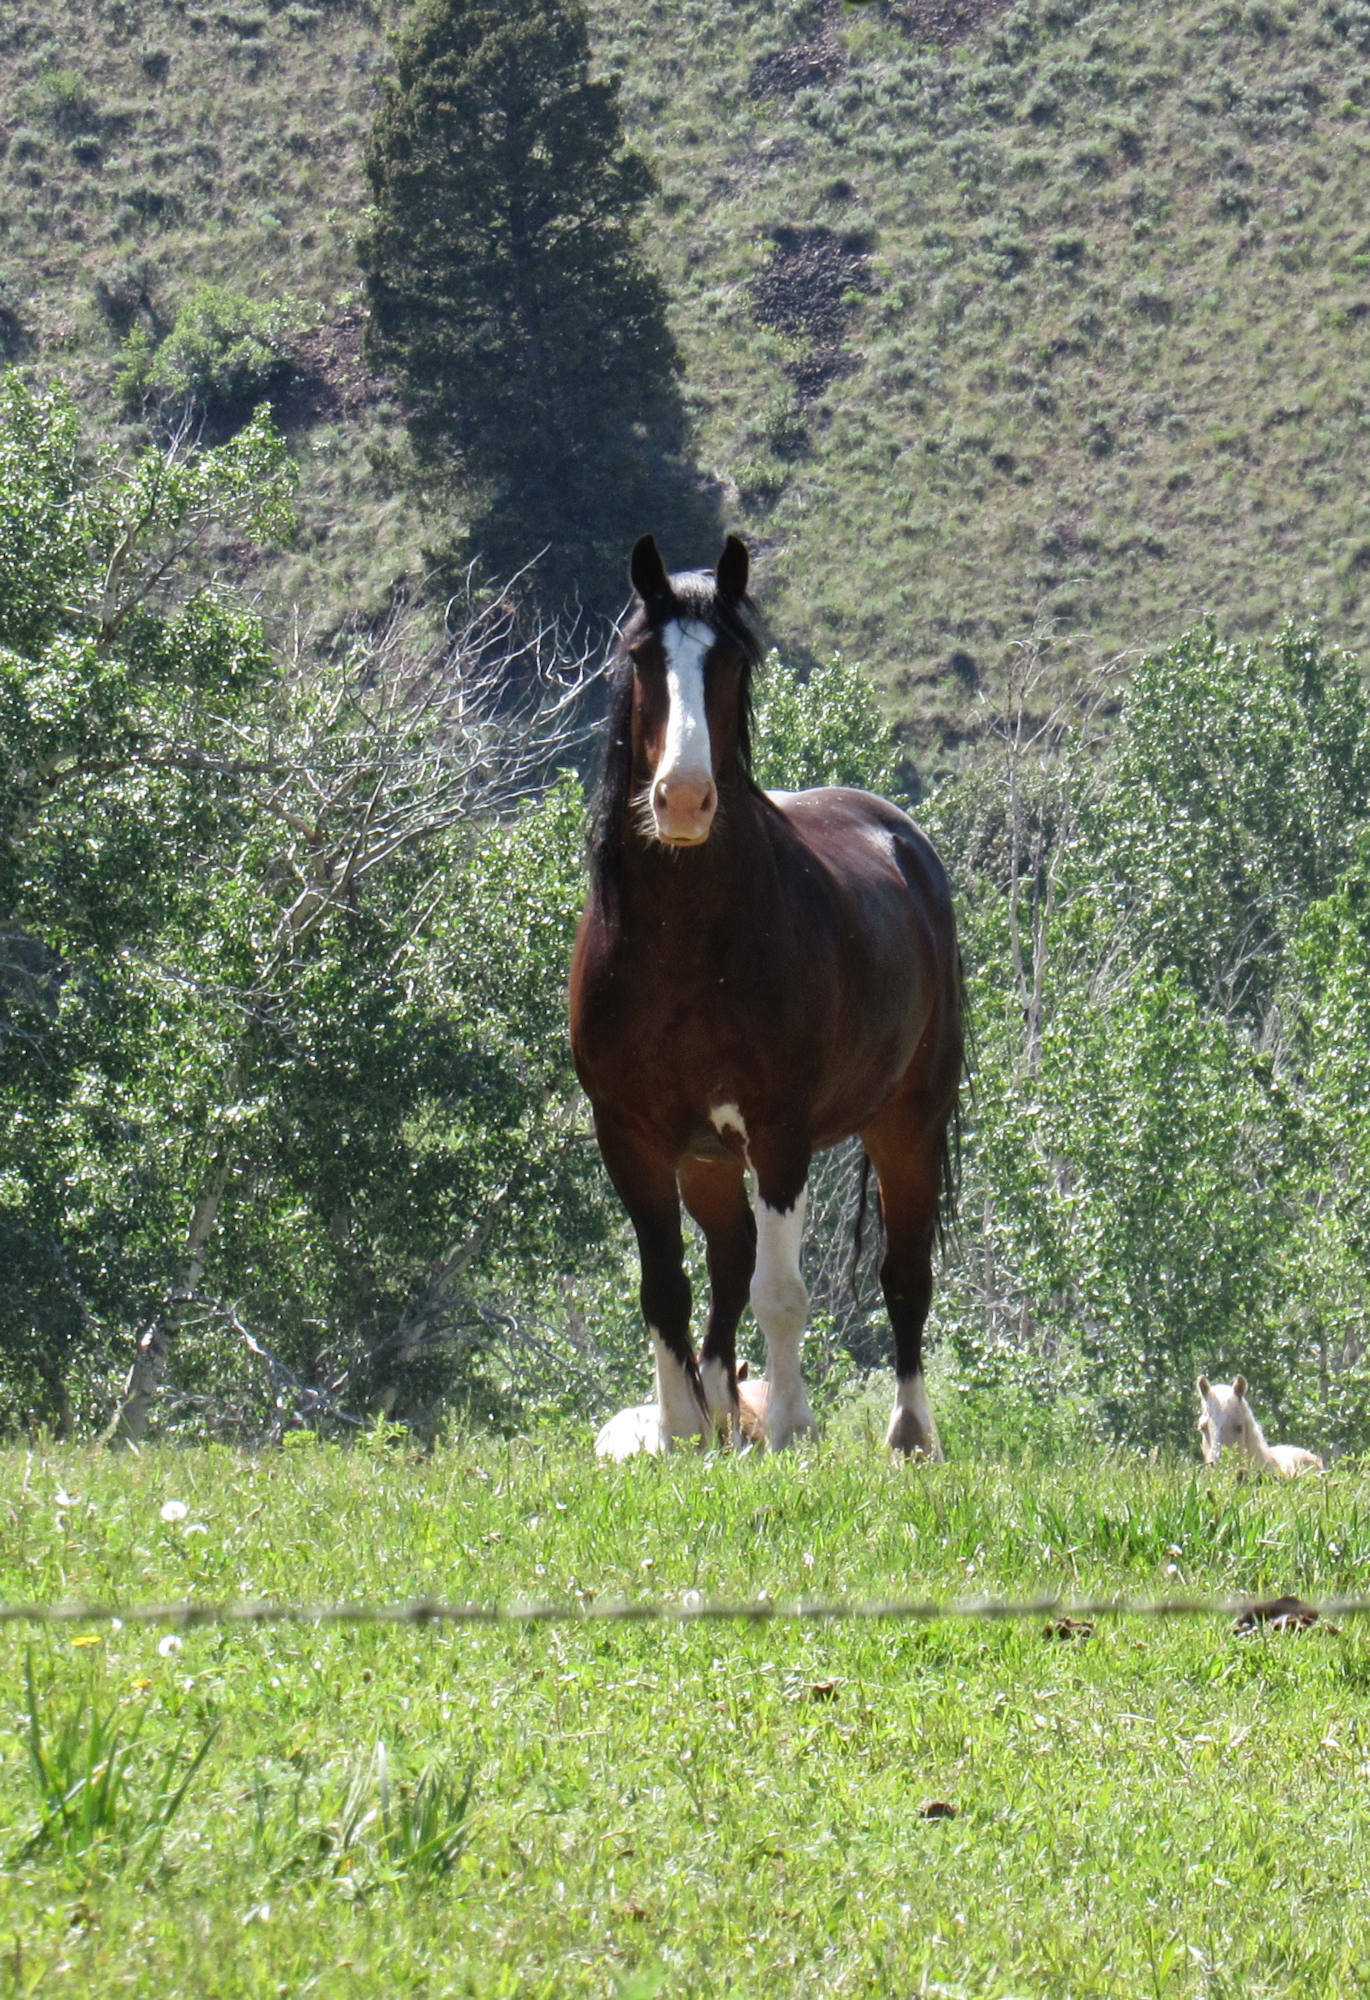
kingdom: Animalia
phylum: Chordata
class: Mammalia
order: Perissodactyla
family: Equidae
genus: Equus
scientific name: Equus caballus
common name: Horse
